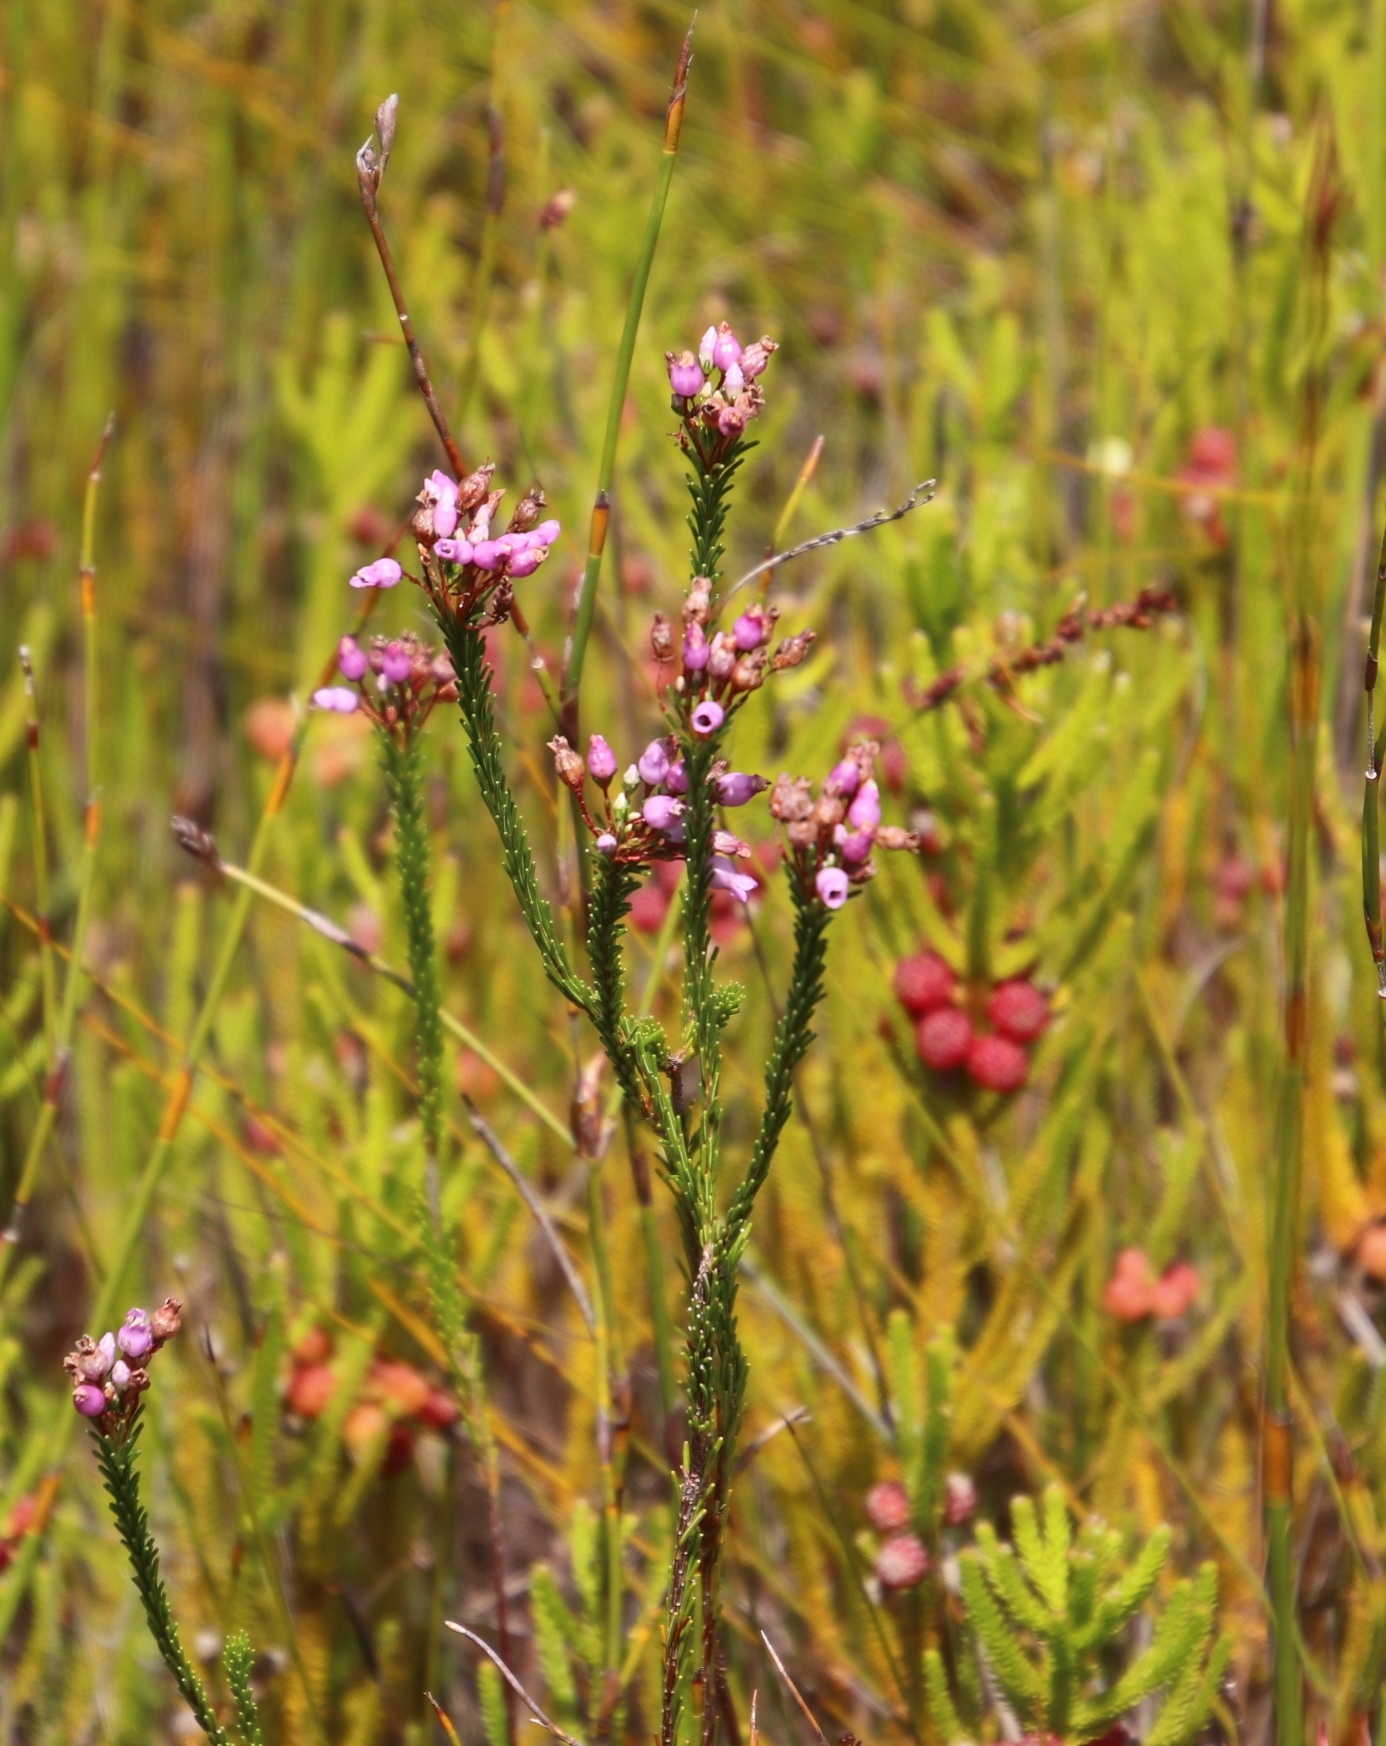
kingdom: Plantae
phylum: Tracheophyta
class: Magnoliopsida
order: Ericales
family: Ericaceae
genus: Erica
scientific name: Erica obliqua
